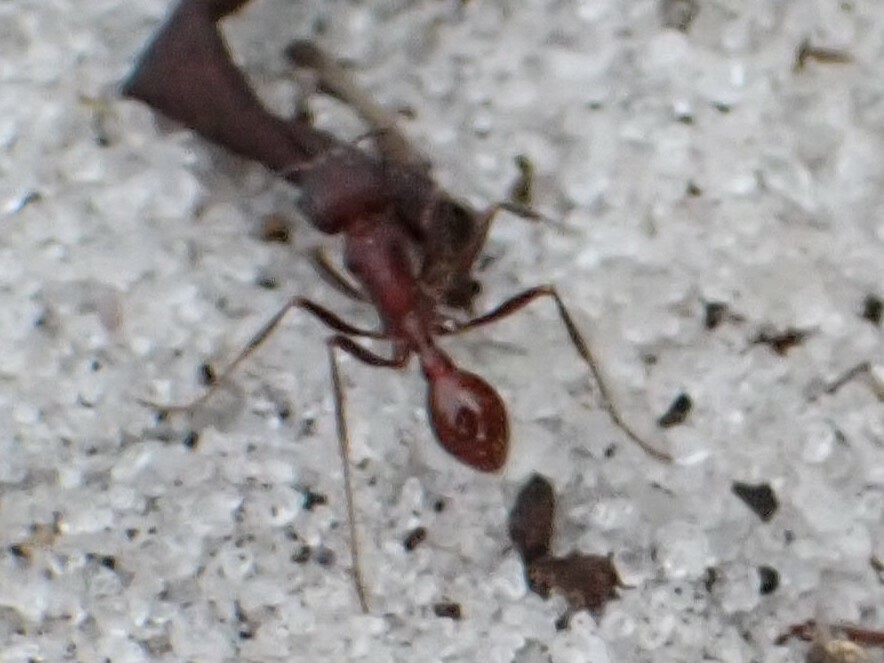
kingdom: Animalia
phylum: Arthropoda
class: Insecta
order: Hymenoptera
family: Formicidae
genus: Pogonomyrmex
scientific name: Pogonomyrmex badius
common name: Florida harvester ant
